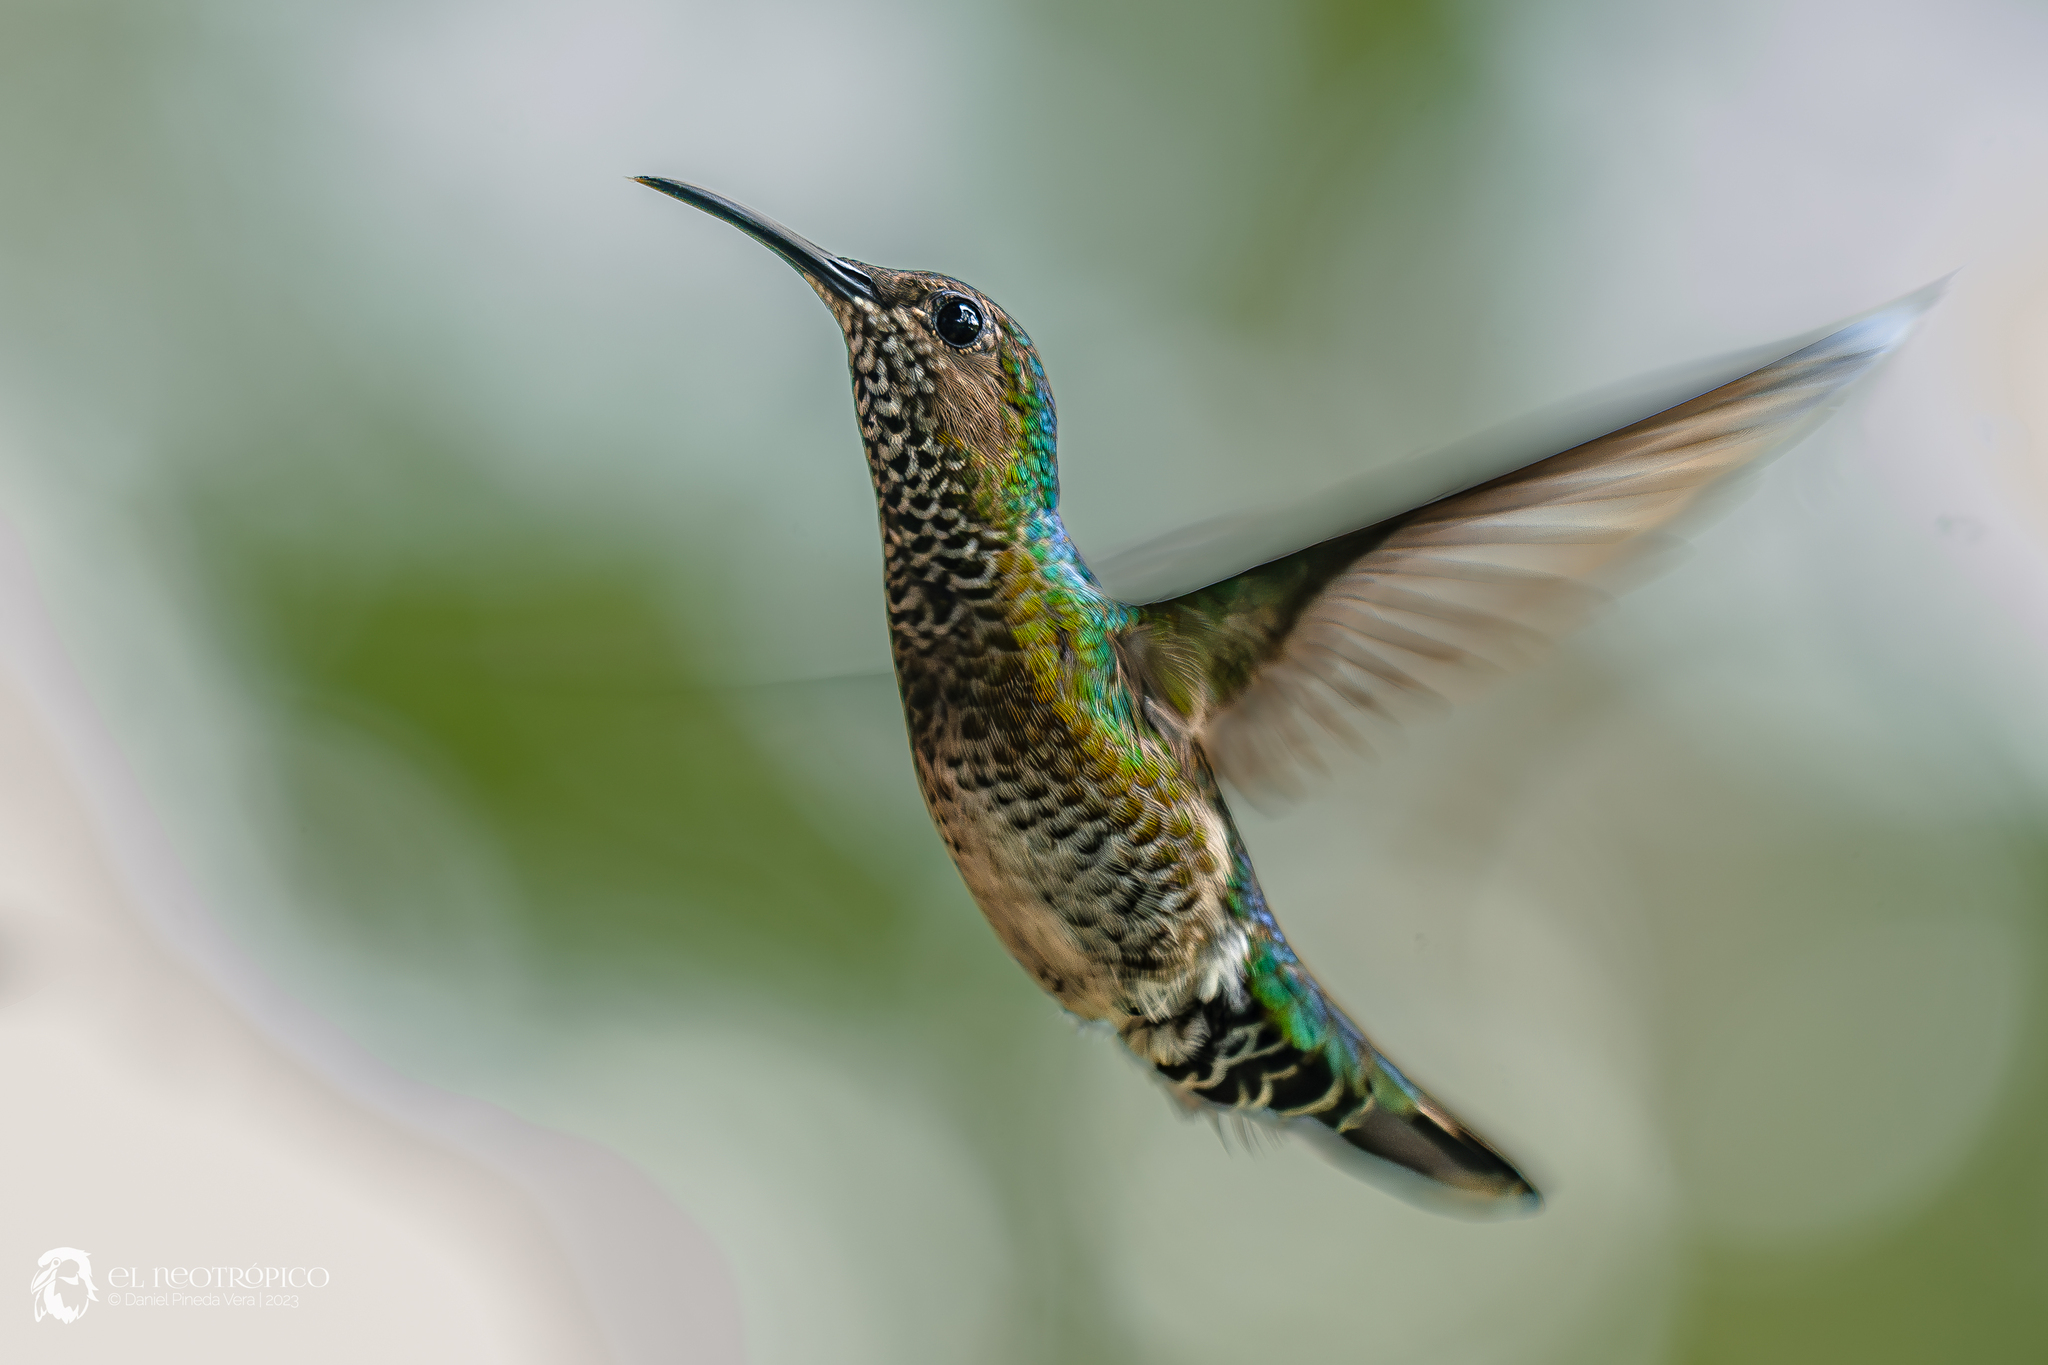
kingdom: Animalia
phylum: Chordata
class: Aves
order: Apodiformes
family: Trochilidae
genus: Florisuga
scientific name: Florisuga mellivora
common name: White-necked jacobin
